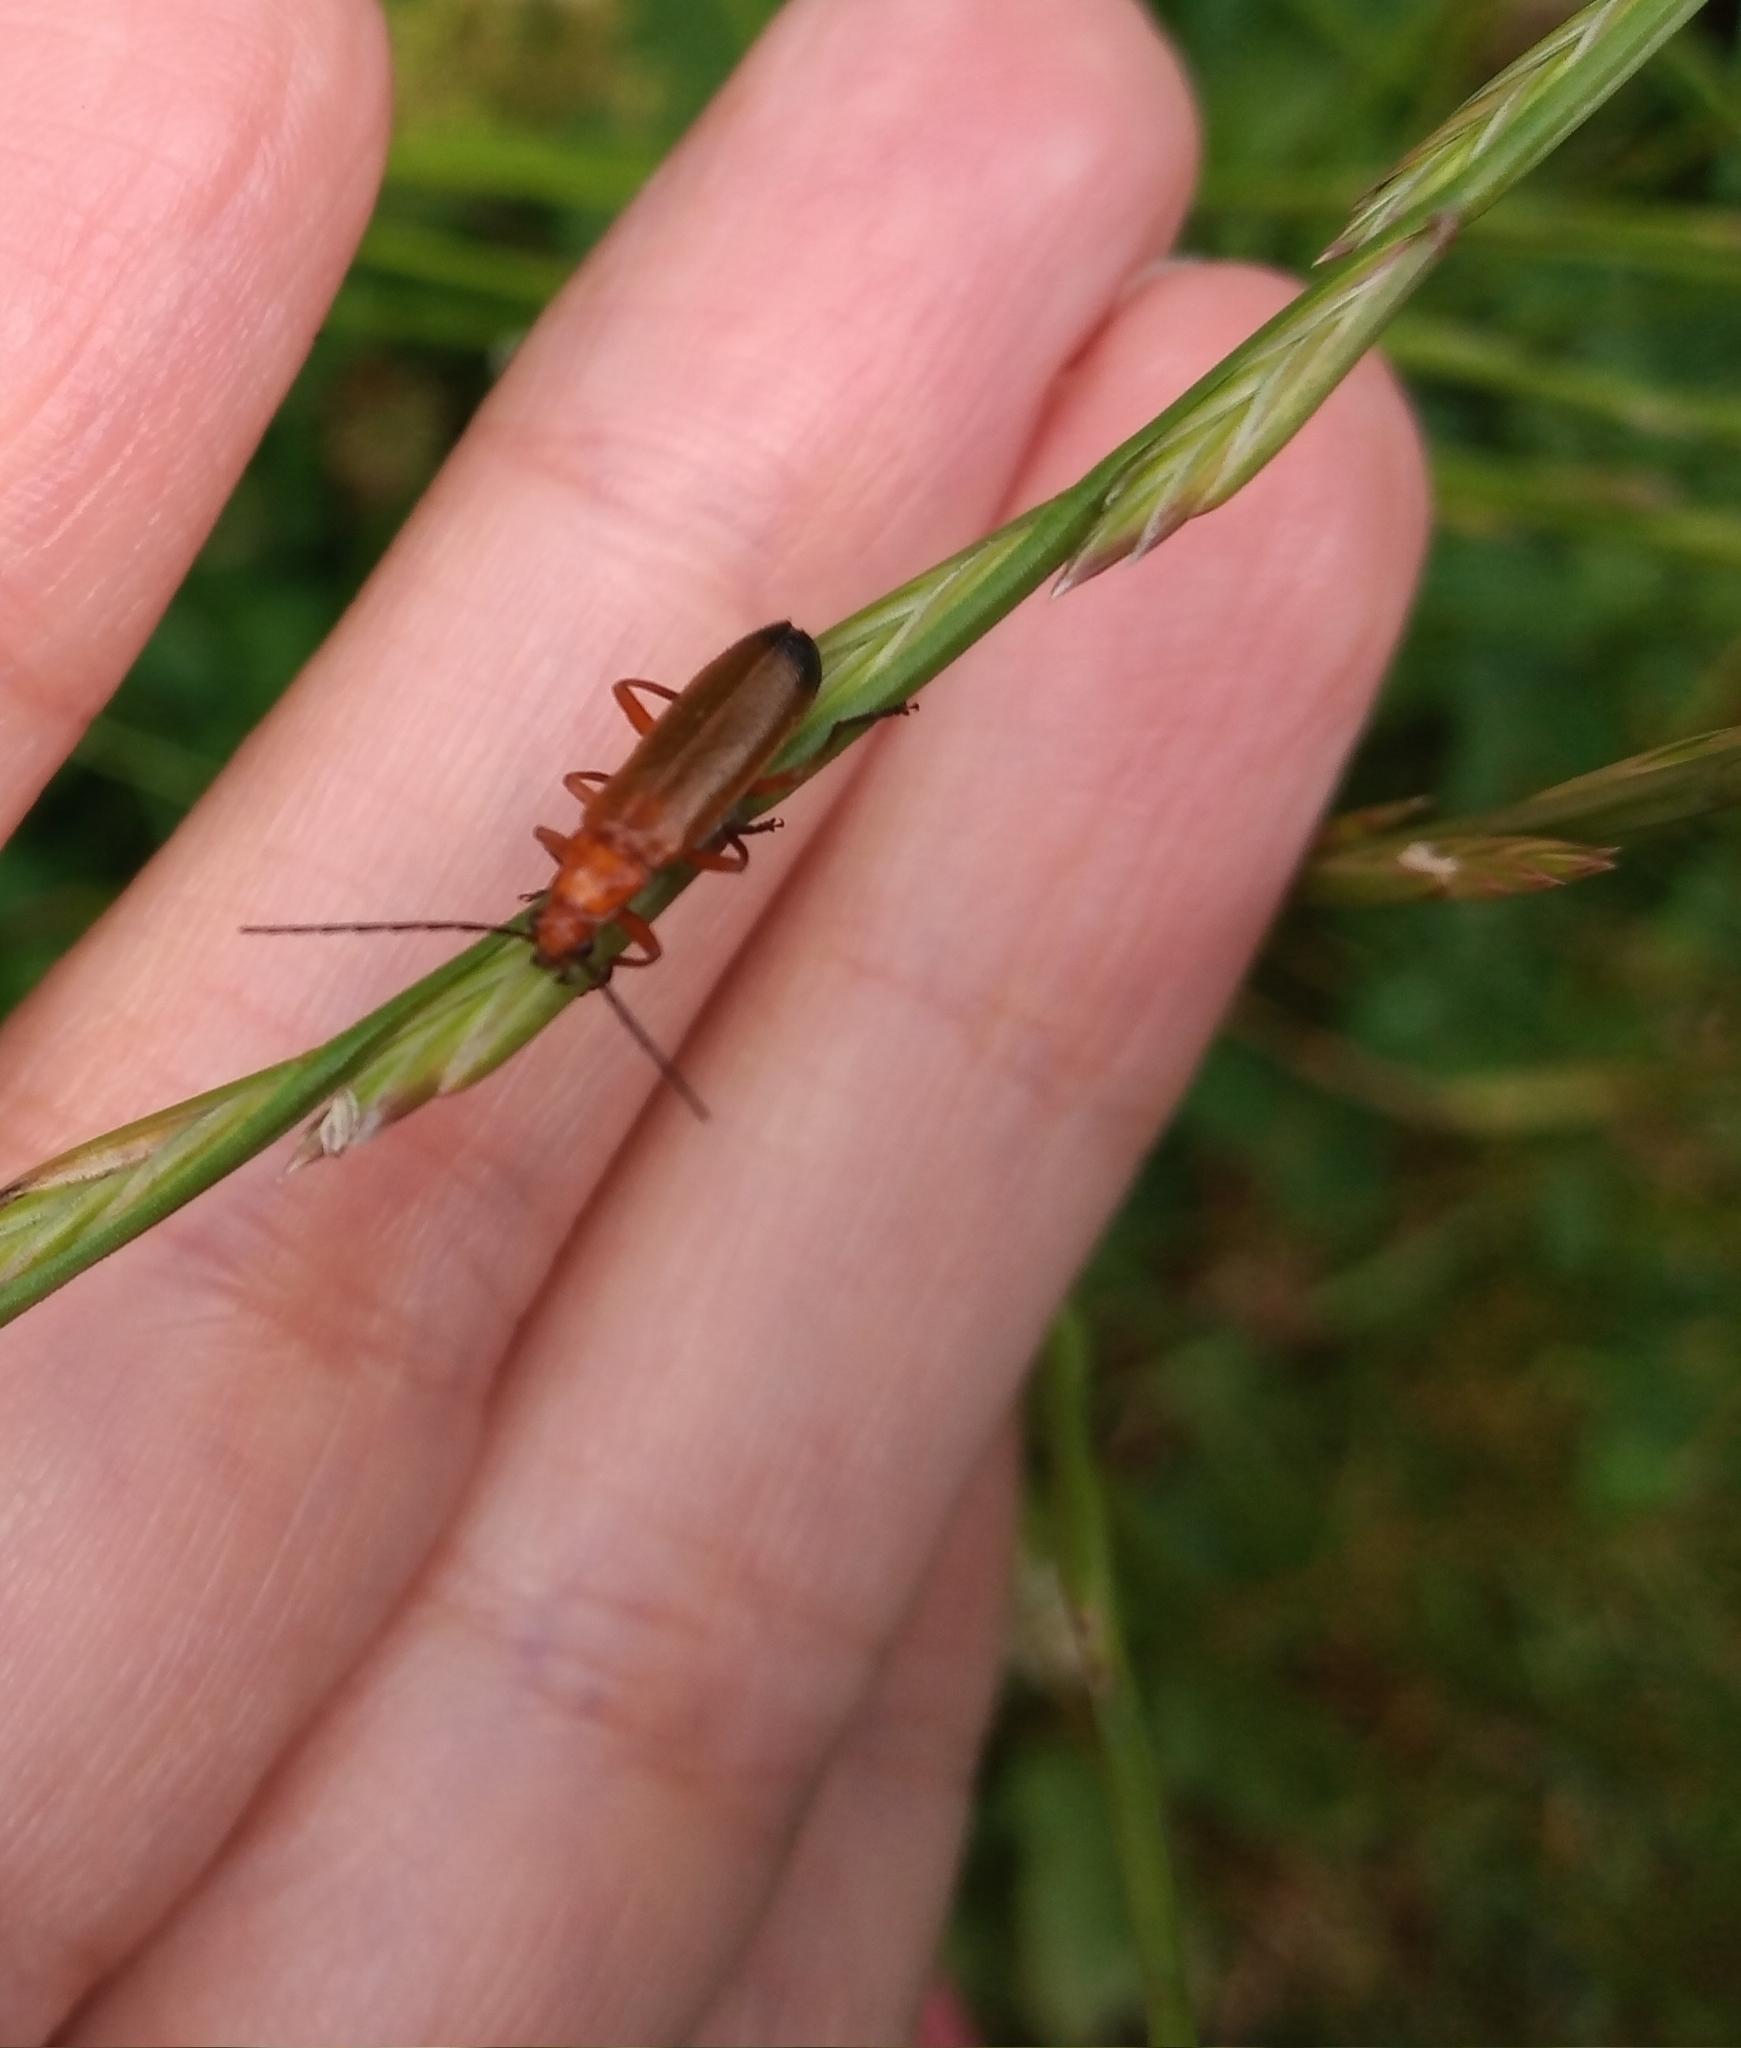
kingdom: Animalia
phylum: Arthropoda
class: Insecta
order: Coleoptera
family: Cantharidae
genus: Rhagonycha
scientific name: Rhagonycha fulva
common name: Common red soldier beetle
